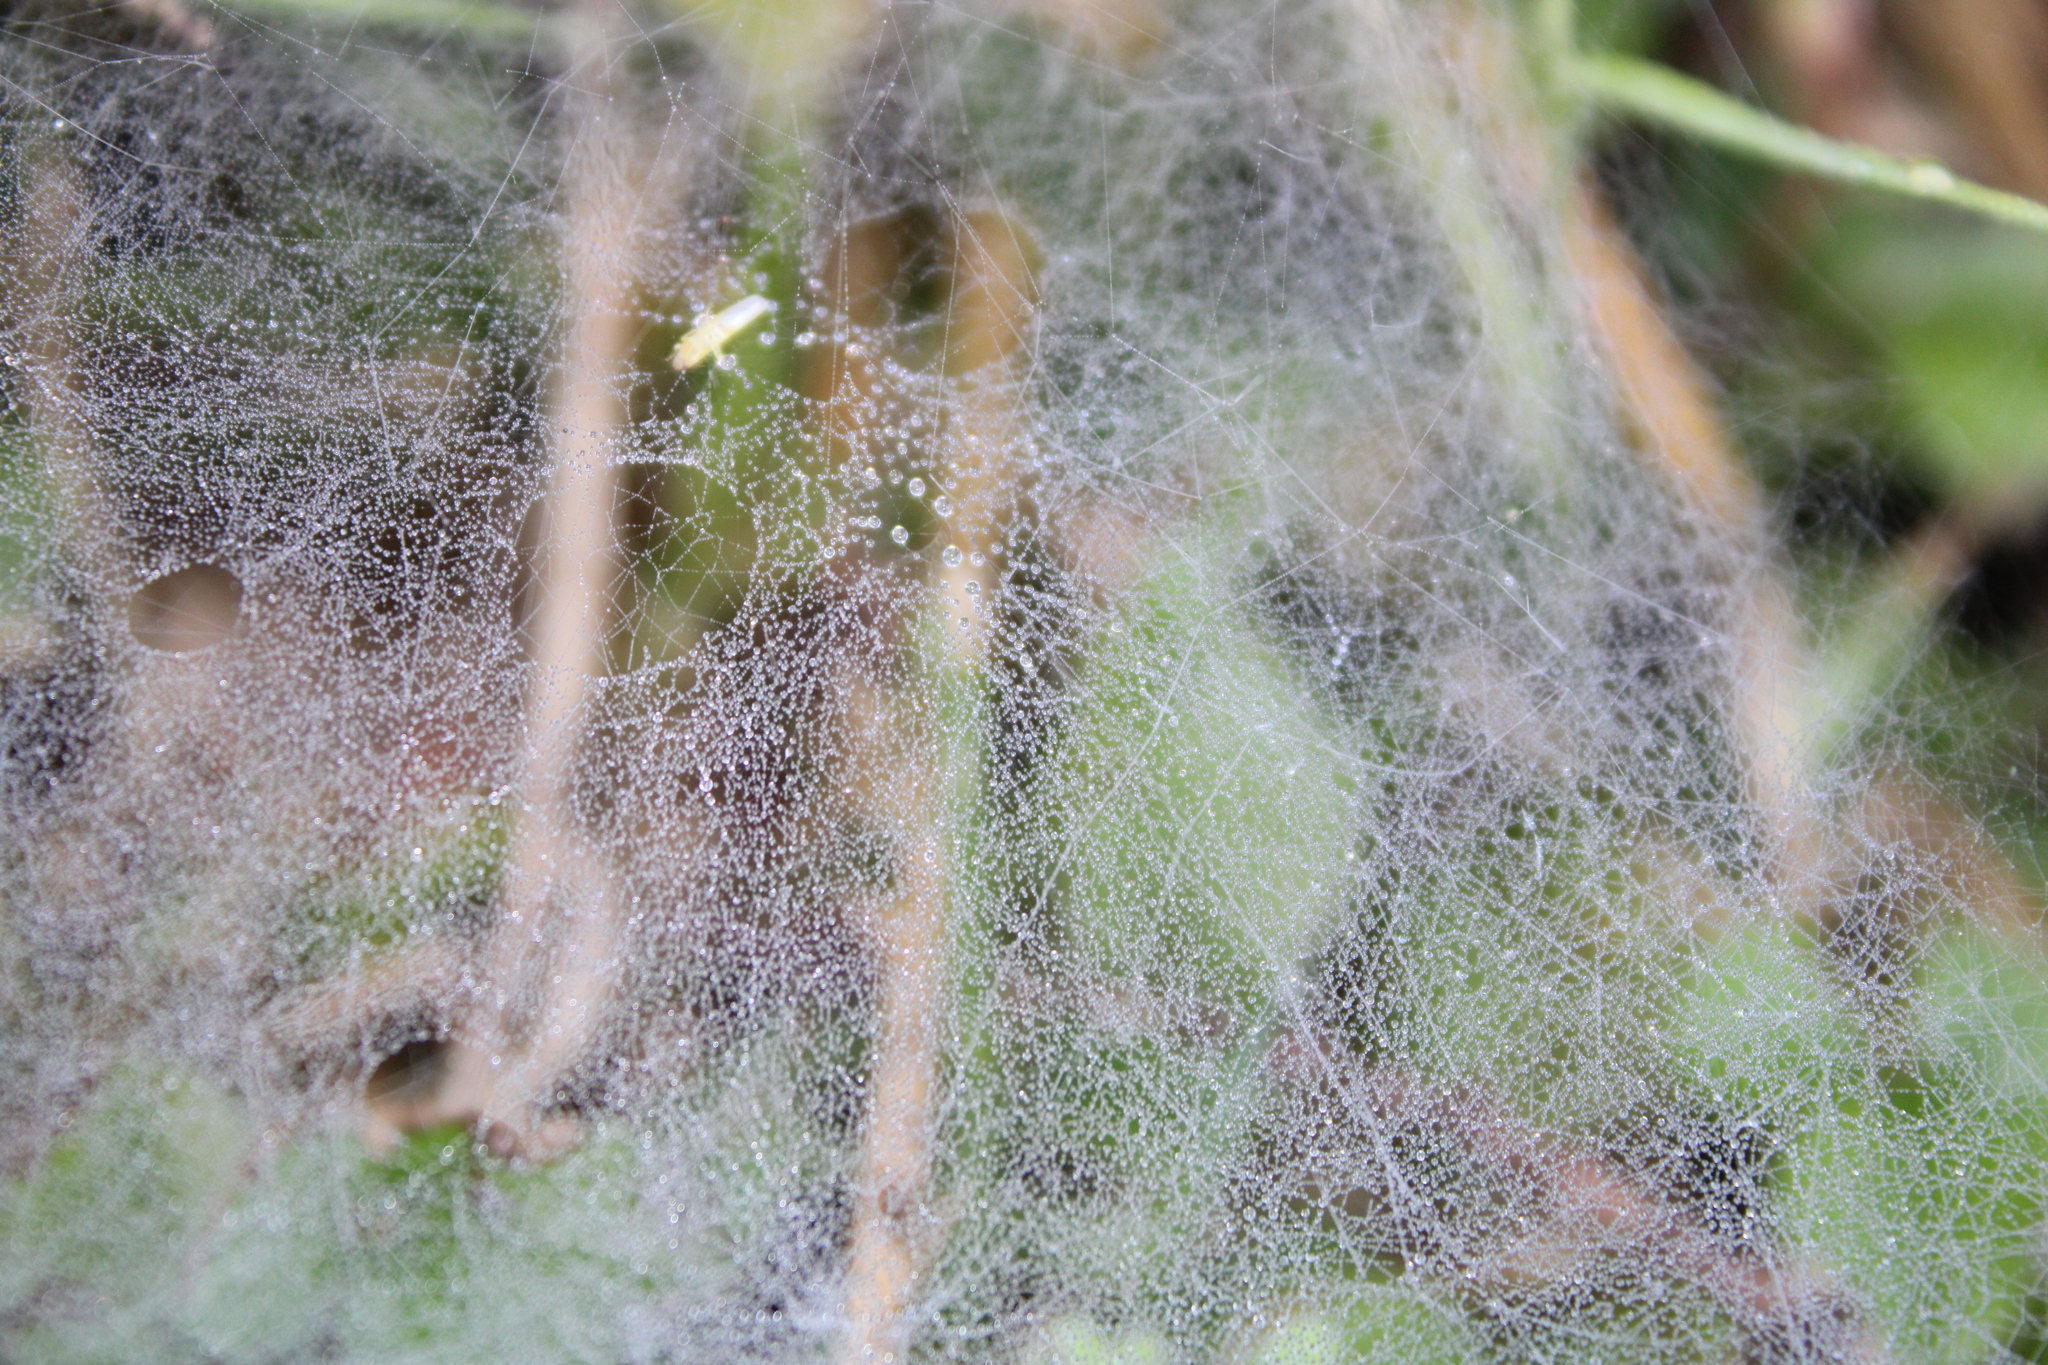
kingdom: Animalia
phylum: Arthropoda
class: Arachnida
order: Araneae
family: Linyphiidae
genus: Florinda
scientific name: Florinda coccinea
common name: Black-tailed red sheetweaver
